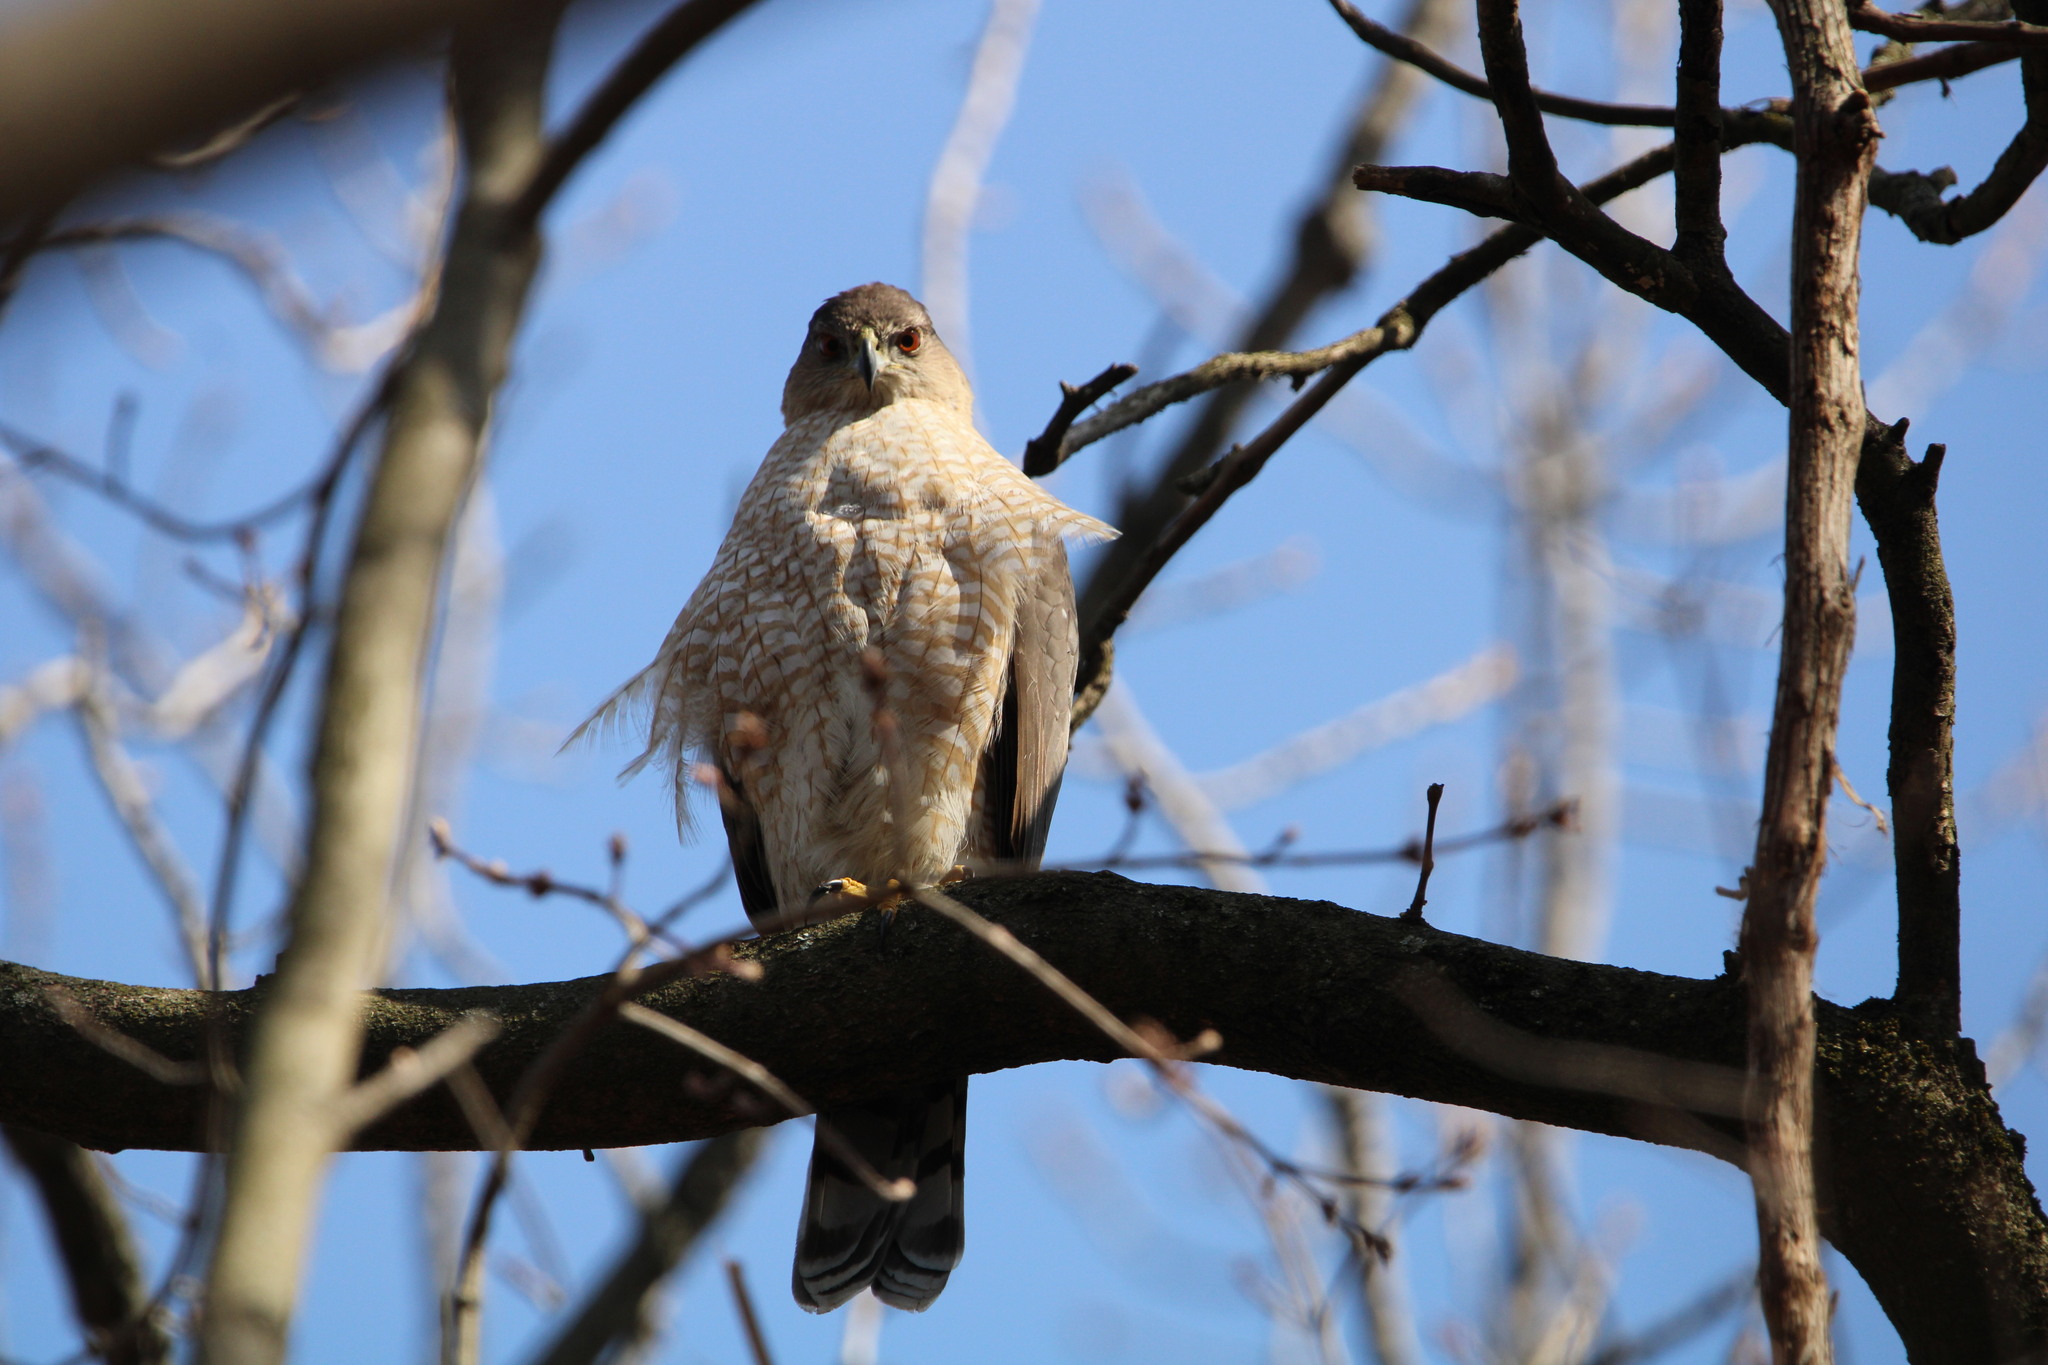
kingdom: Animalia
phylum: Chordata
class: Aves
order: Accipitriformes
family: Accipitridae
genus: Accipiter
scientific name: Accipiter cooperii
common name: Cooper's hawk
